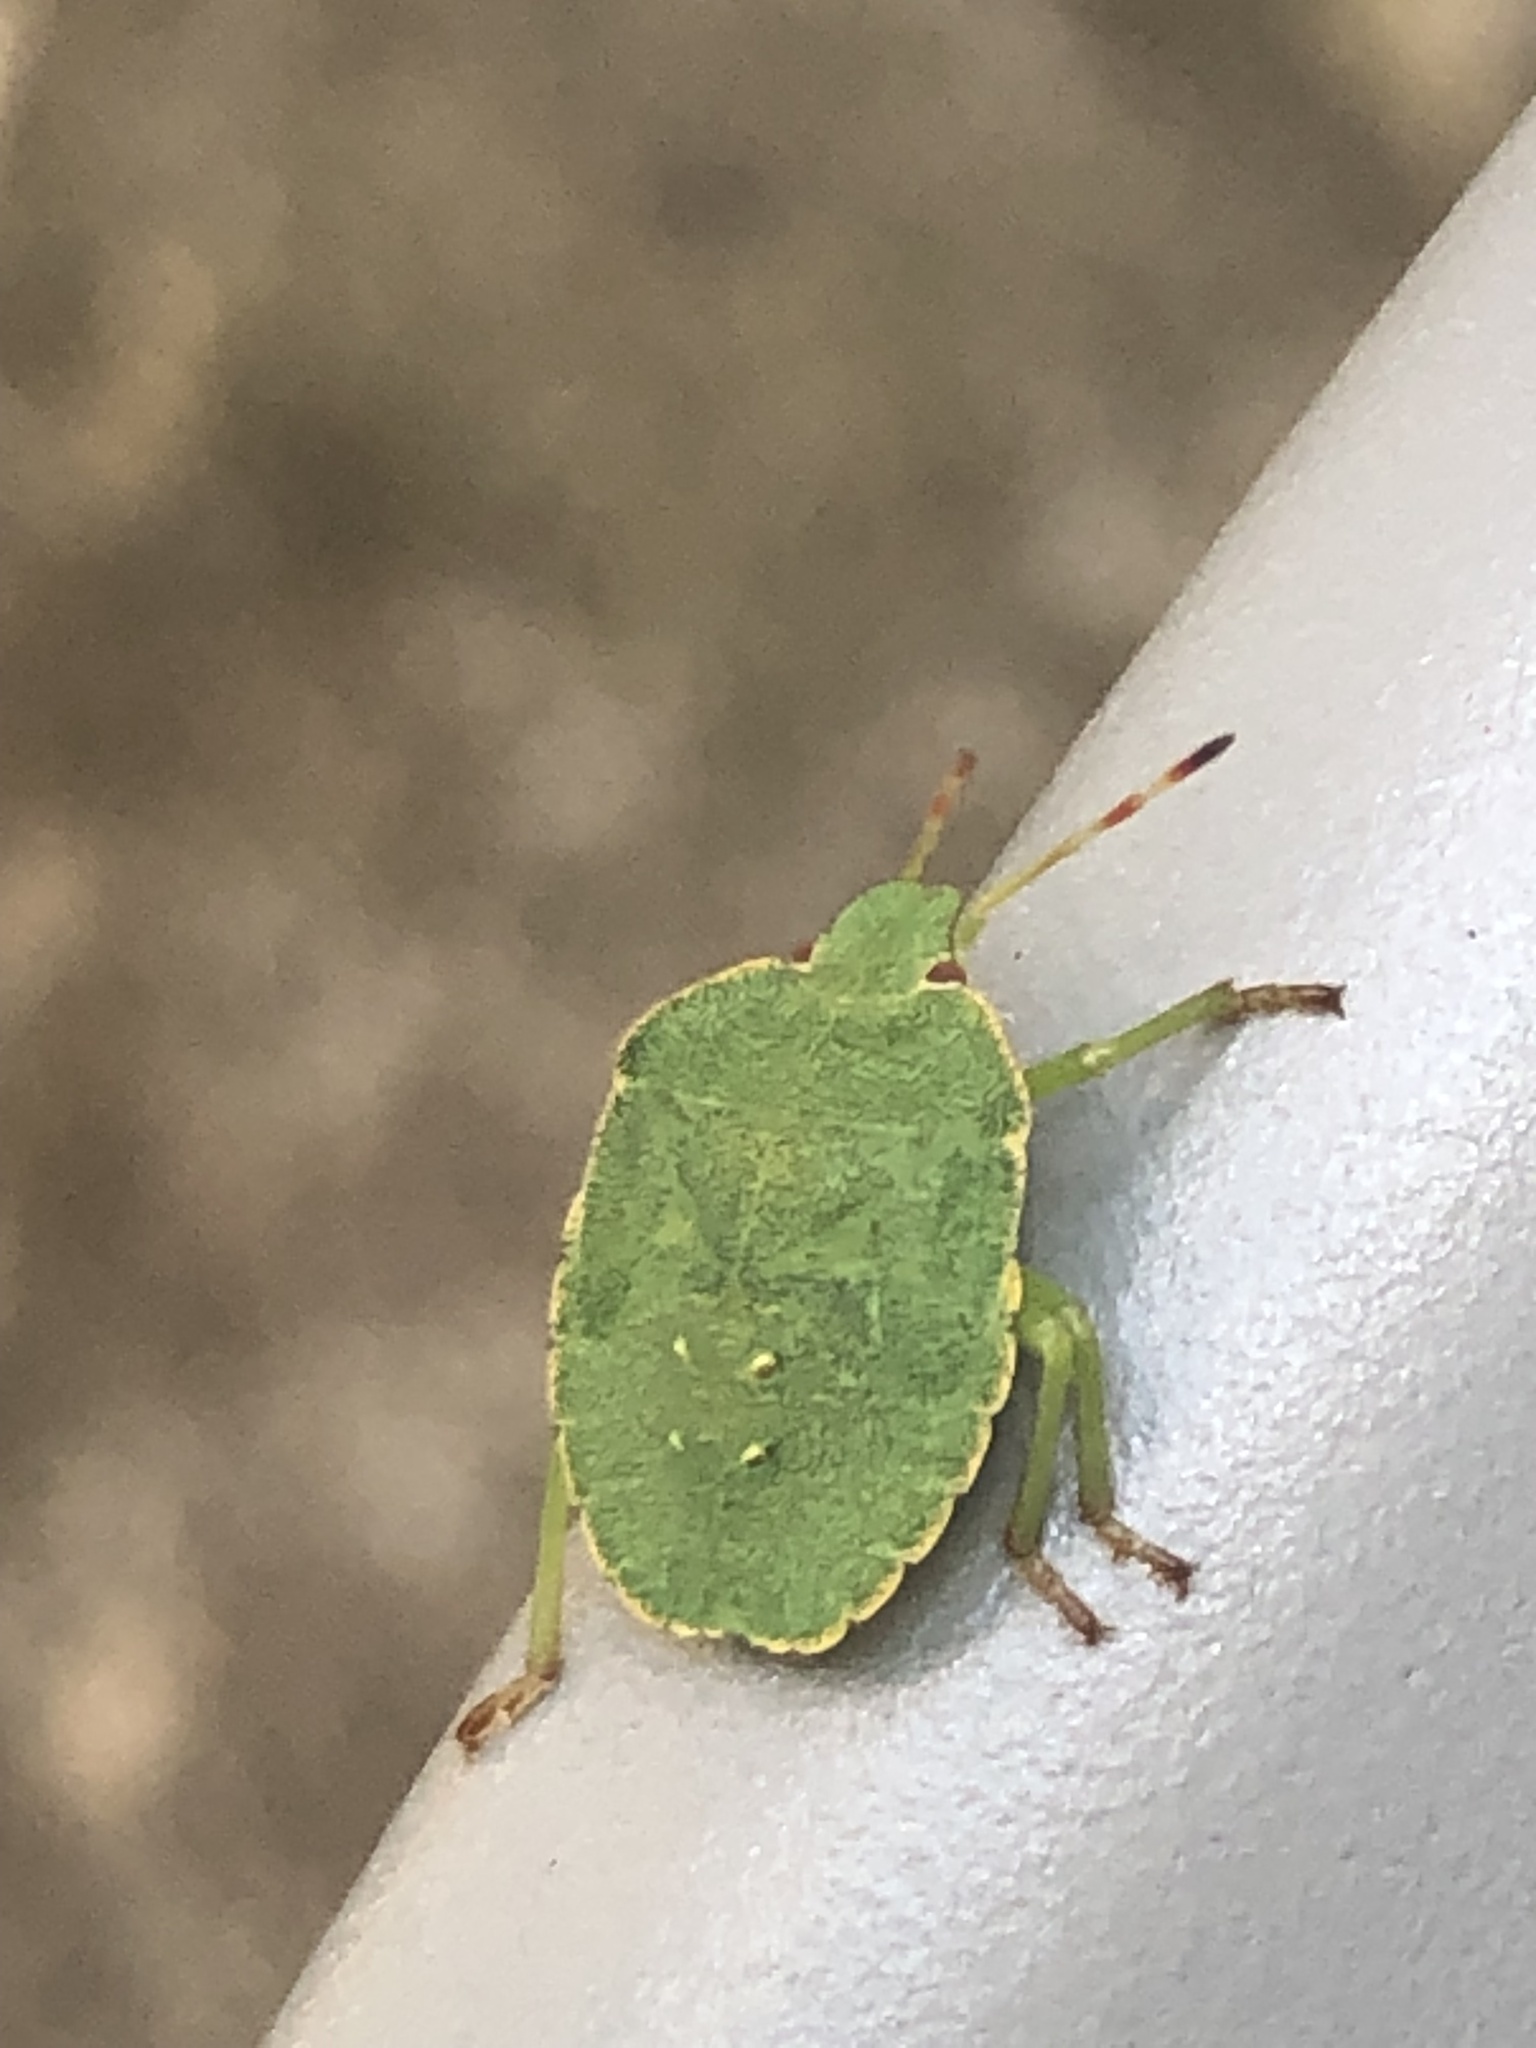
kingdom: Animalia
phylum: Arthropoda
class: Insecta
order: Hemiptera
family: Pentatomidae
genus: Palomena
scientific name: Palomena prasina
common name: Green shieldbug
